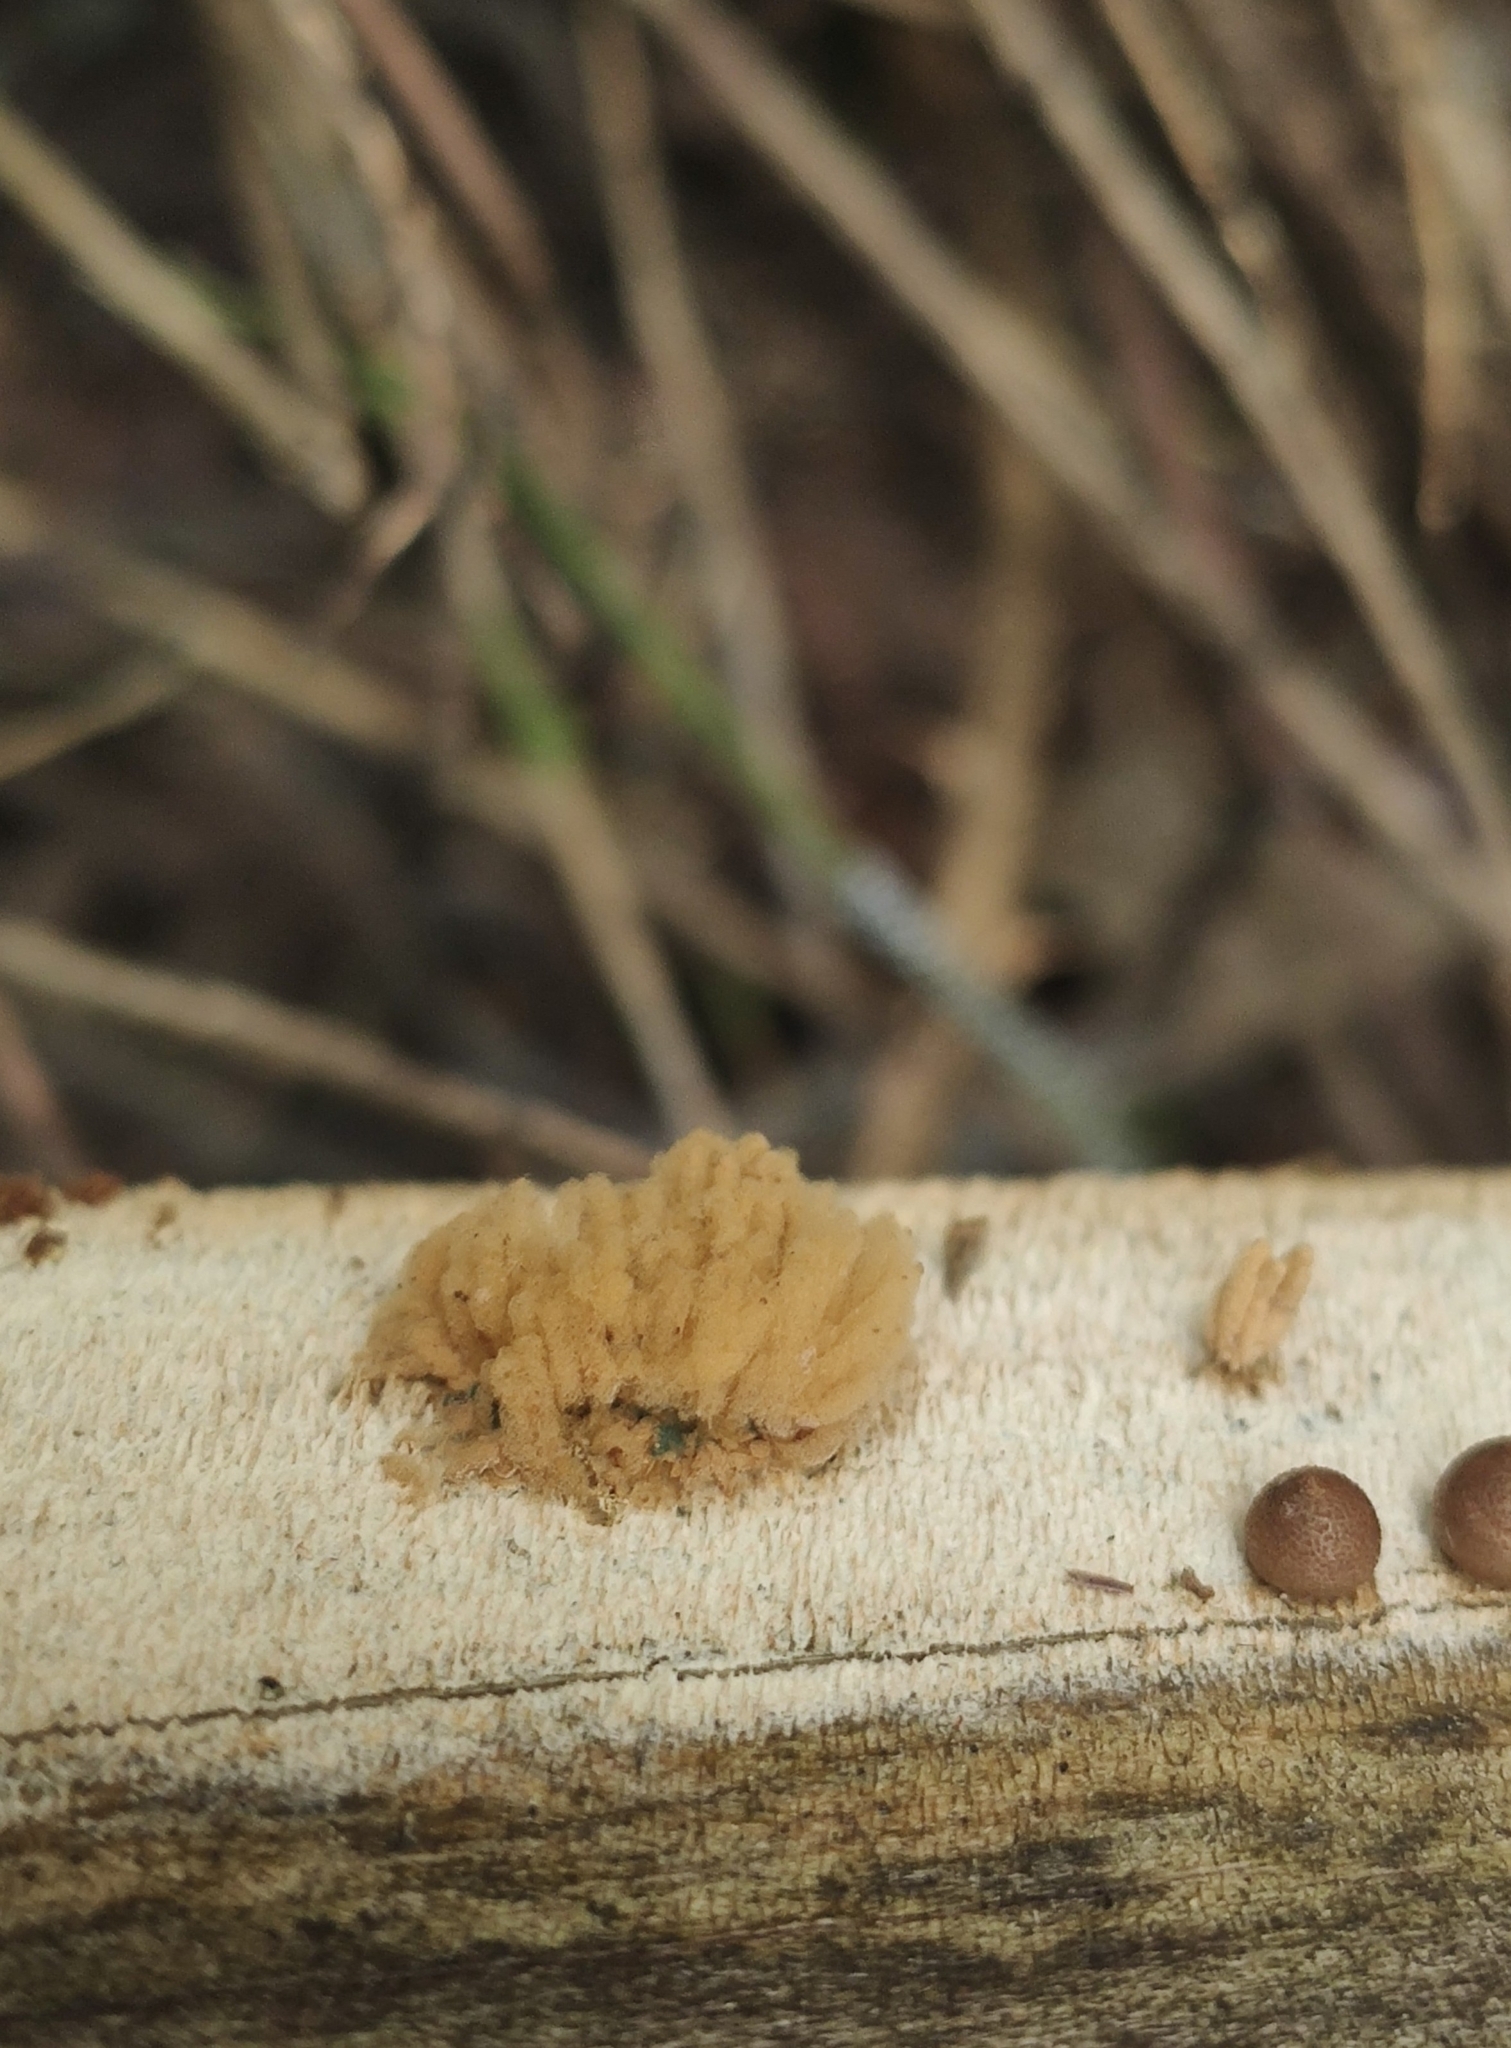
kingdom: Protozoa
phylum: Mycetozoa
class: Myxomycetes
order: Trichiales
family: Arcyriaceae
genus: Arcyria
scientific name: Arcyria obvelata
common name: Yellow carnival candy slime
